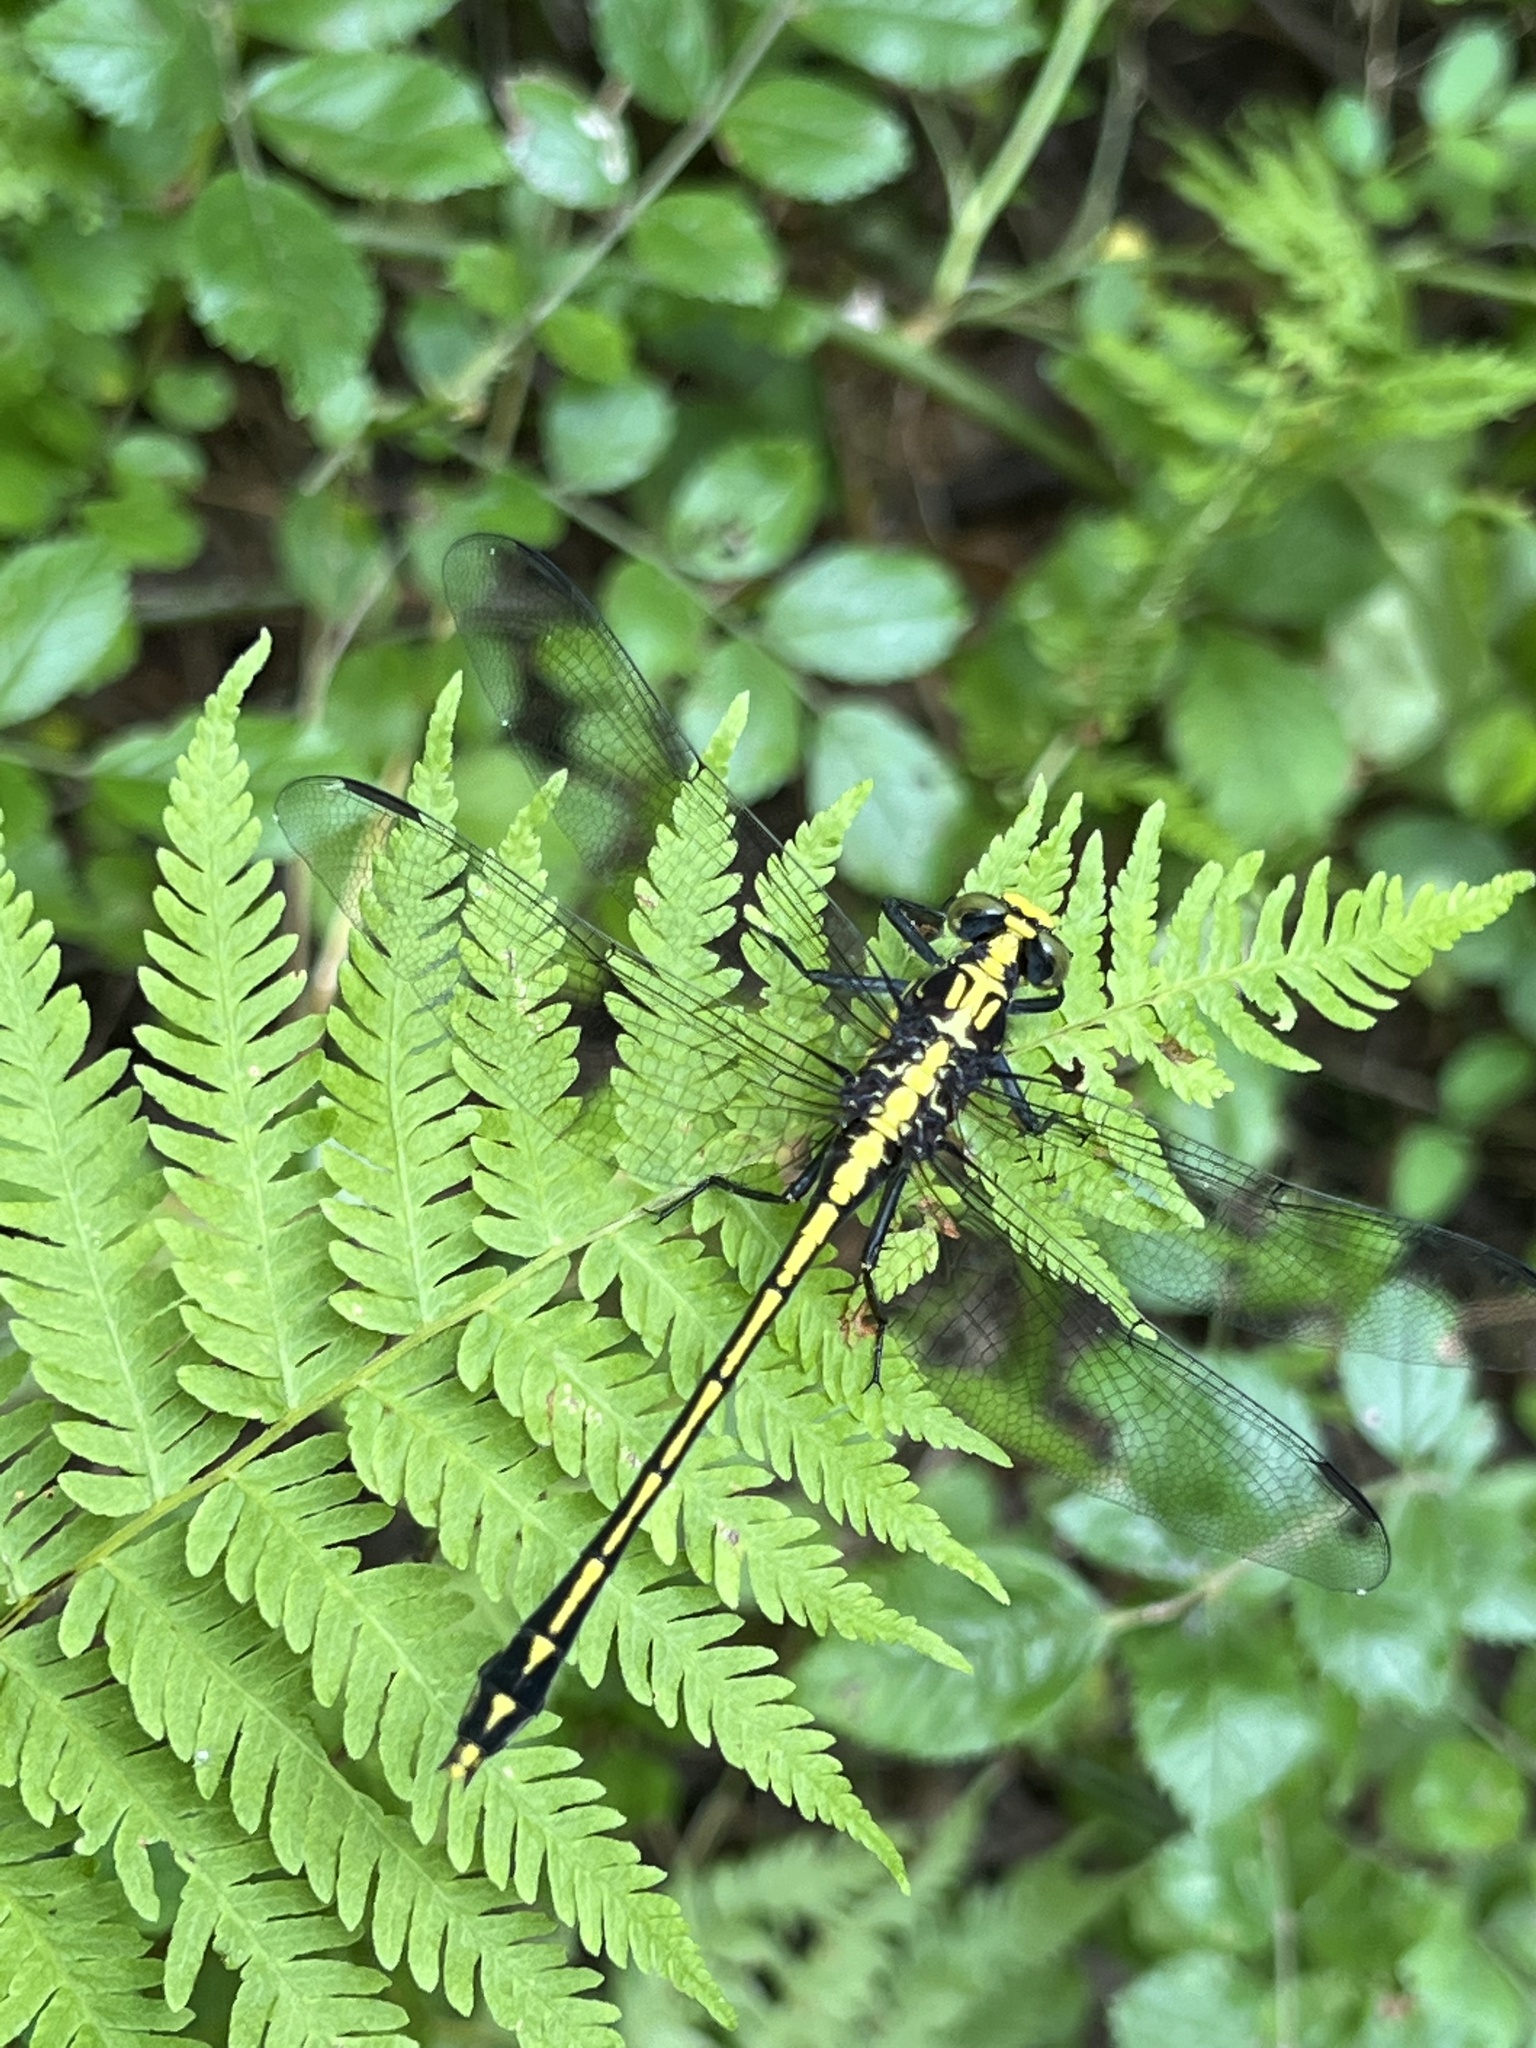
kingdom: Animalia
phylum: Arthropoda
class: Insecta
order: Odonata
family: Gomphidae
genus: Dromogomphus
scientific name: Dromogomphus spinosus
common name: Black-shouldered spinyleg
